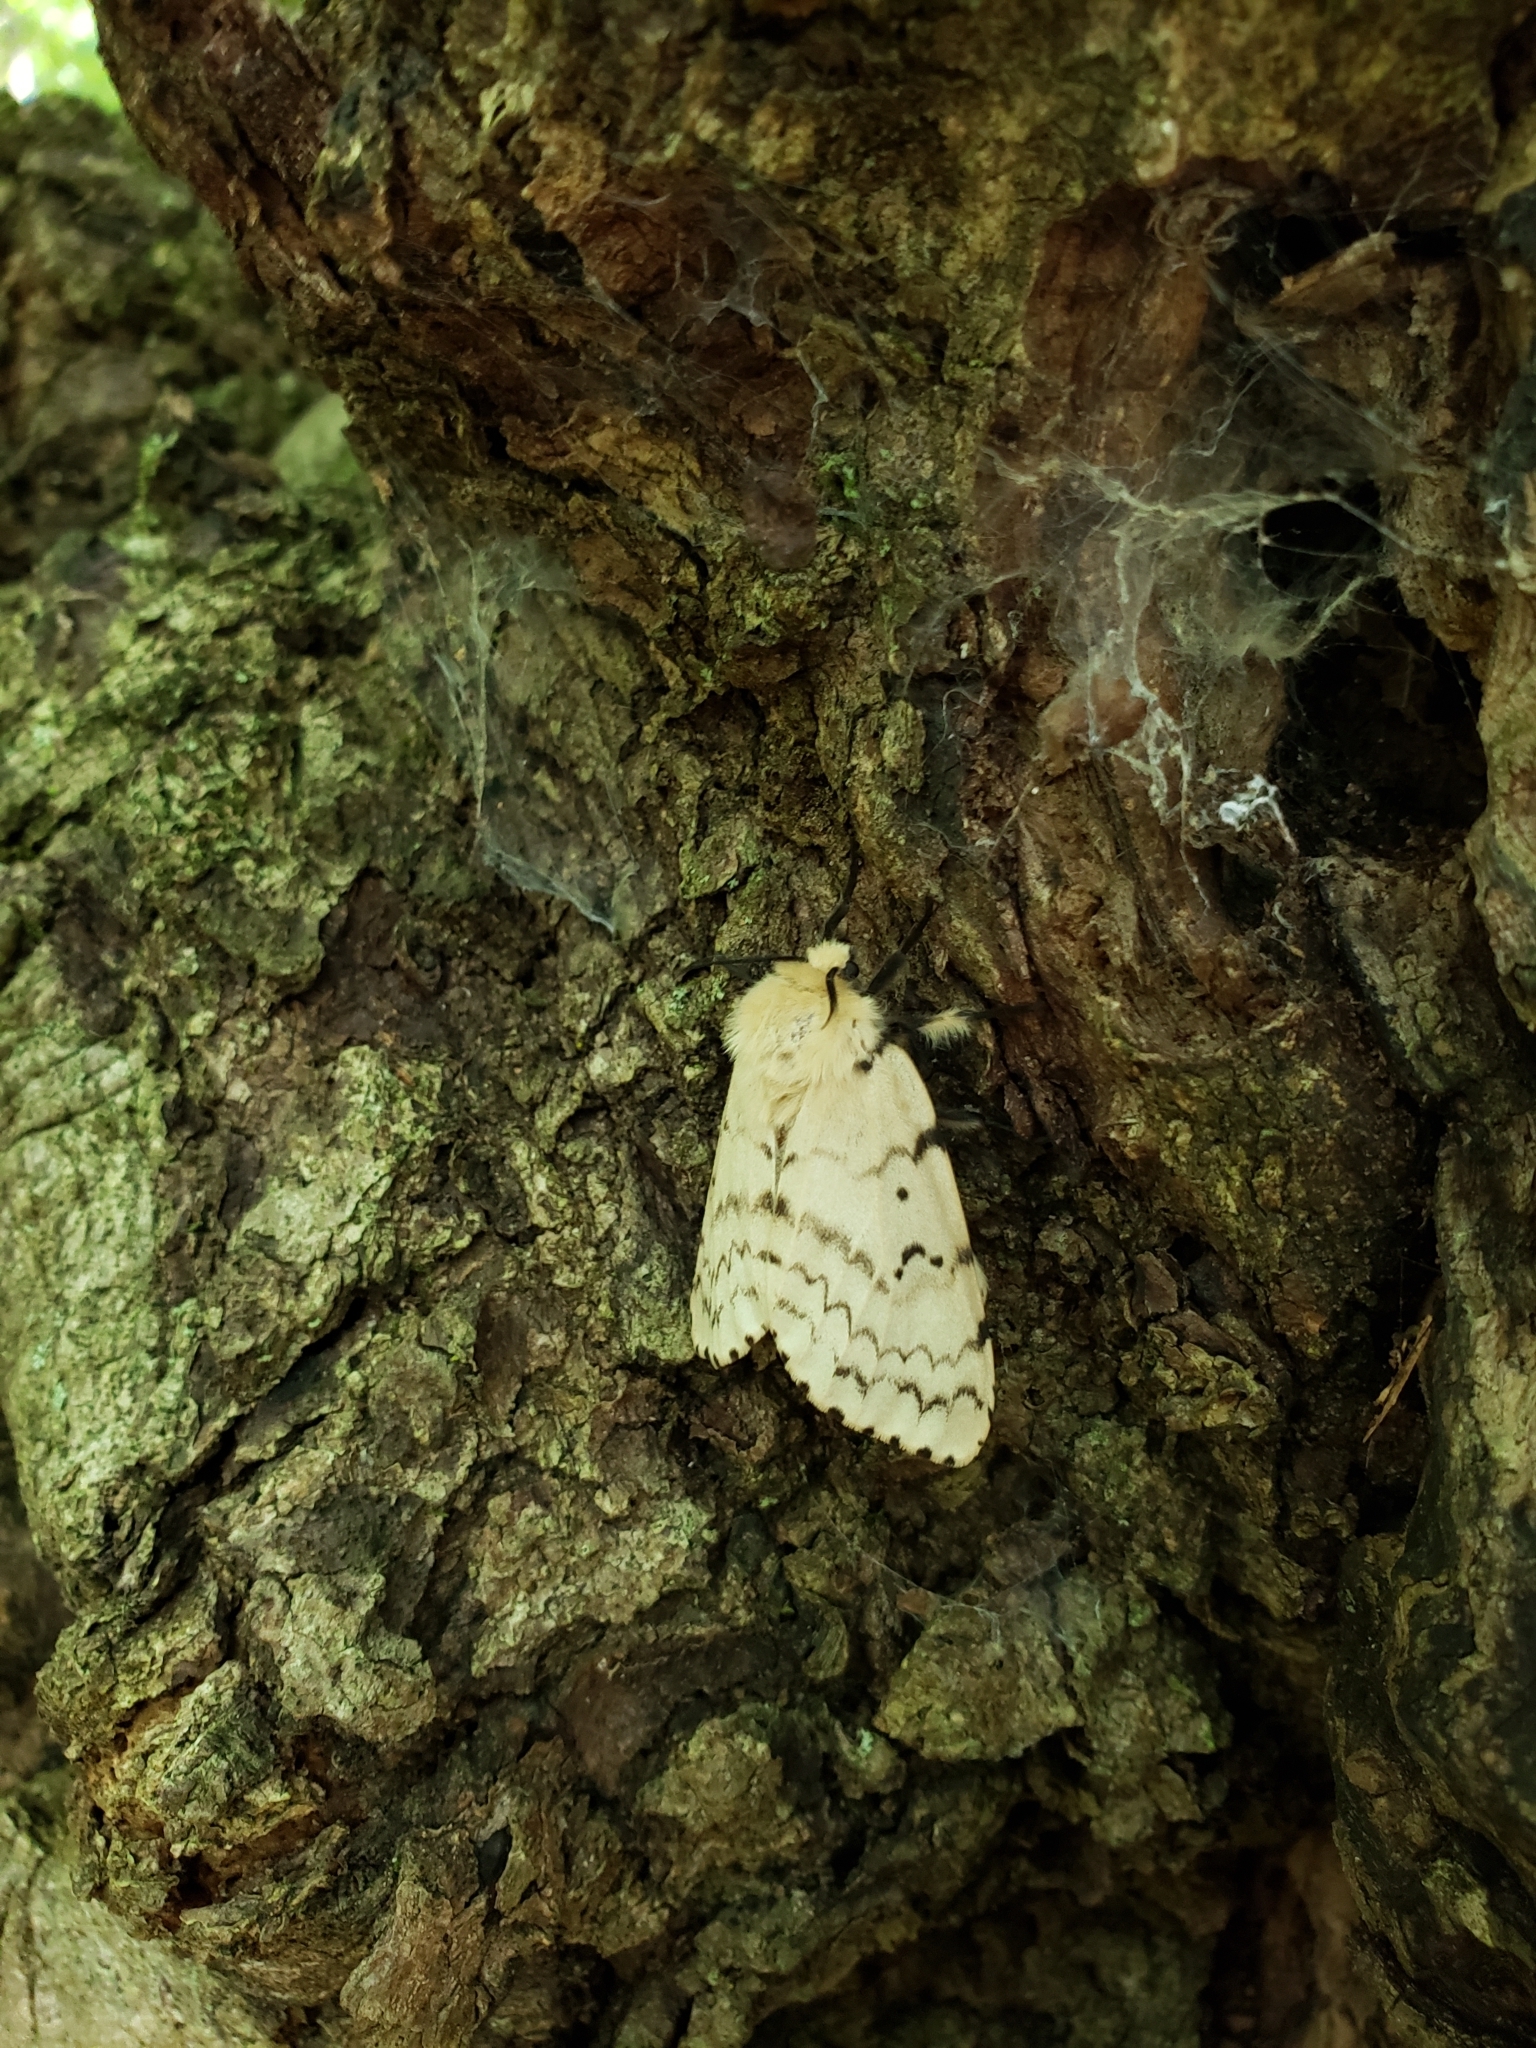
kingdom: Animalia
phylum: Arthropoda
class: Insecta
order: Lepidoptera
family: Erebidae
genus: Lymantria
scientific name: Lymantria dispar
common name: Gypsy moth
